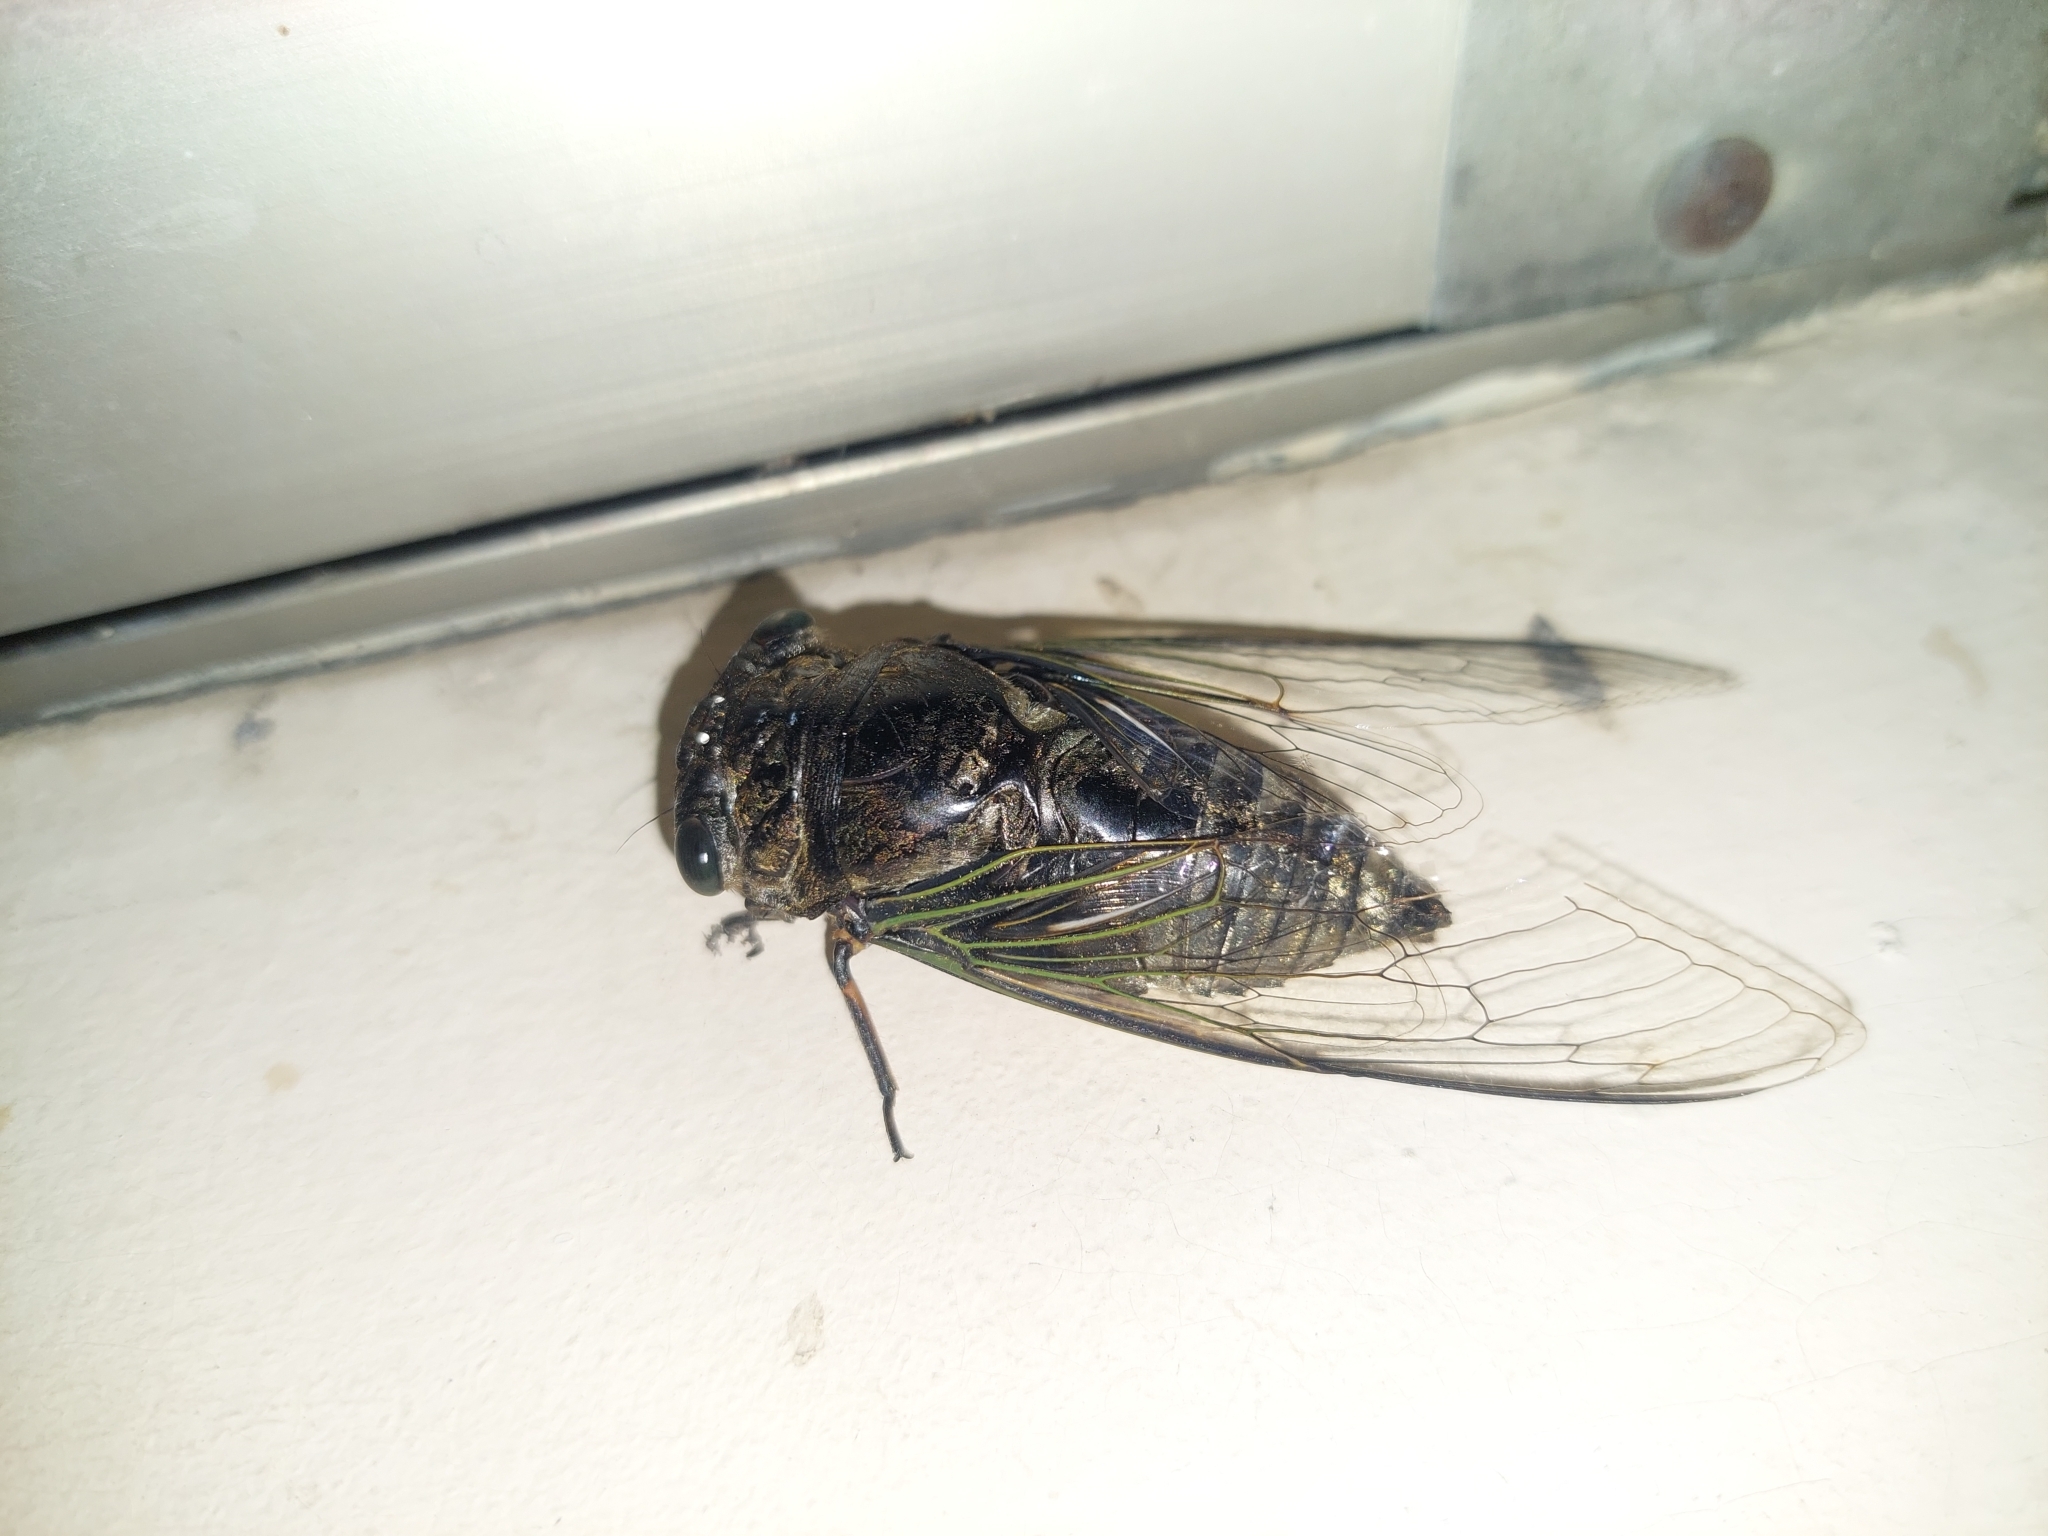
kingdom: Animalia
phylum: Arthropoda
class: Insecta
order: Hemiptera
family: Cicadidae
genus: Cryptotympana
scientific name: Cryptotympana takasagona
